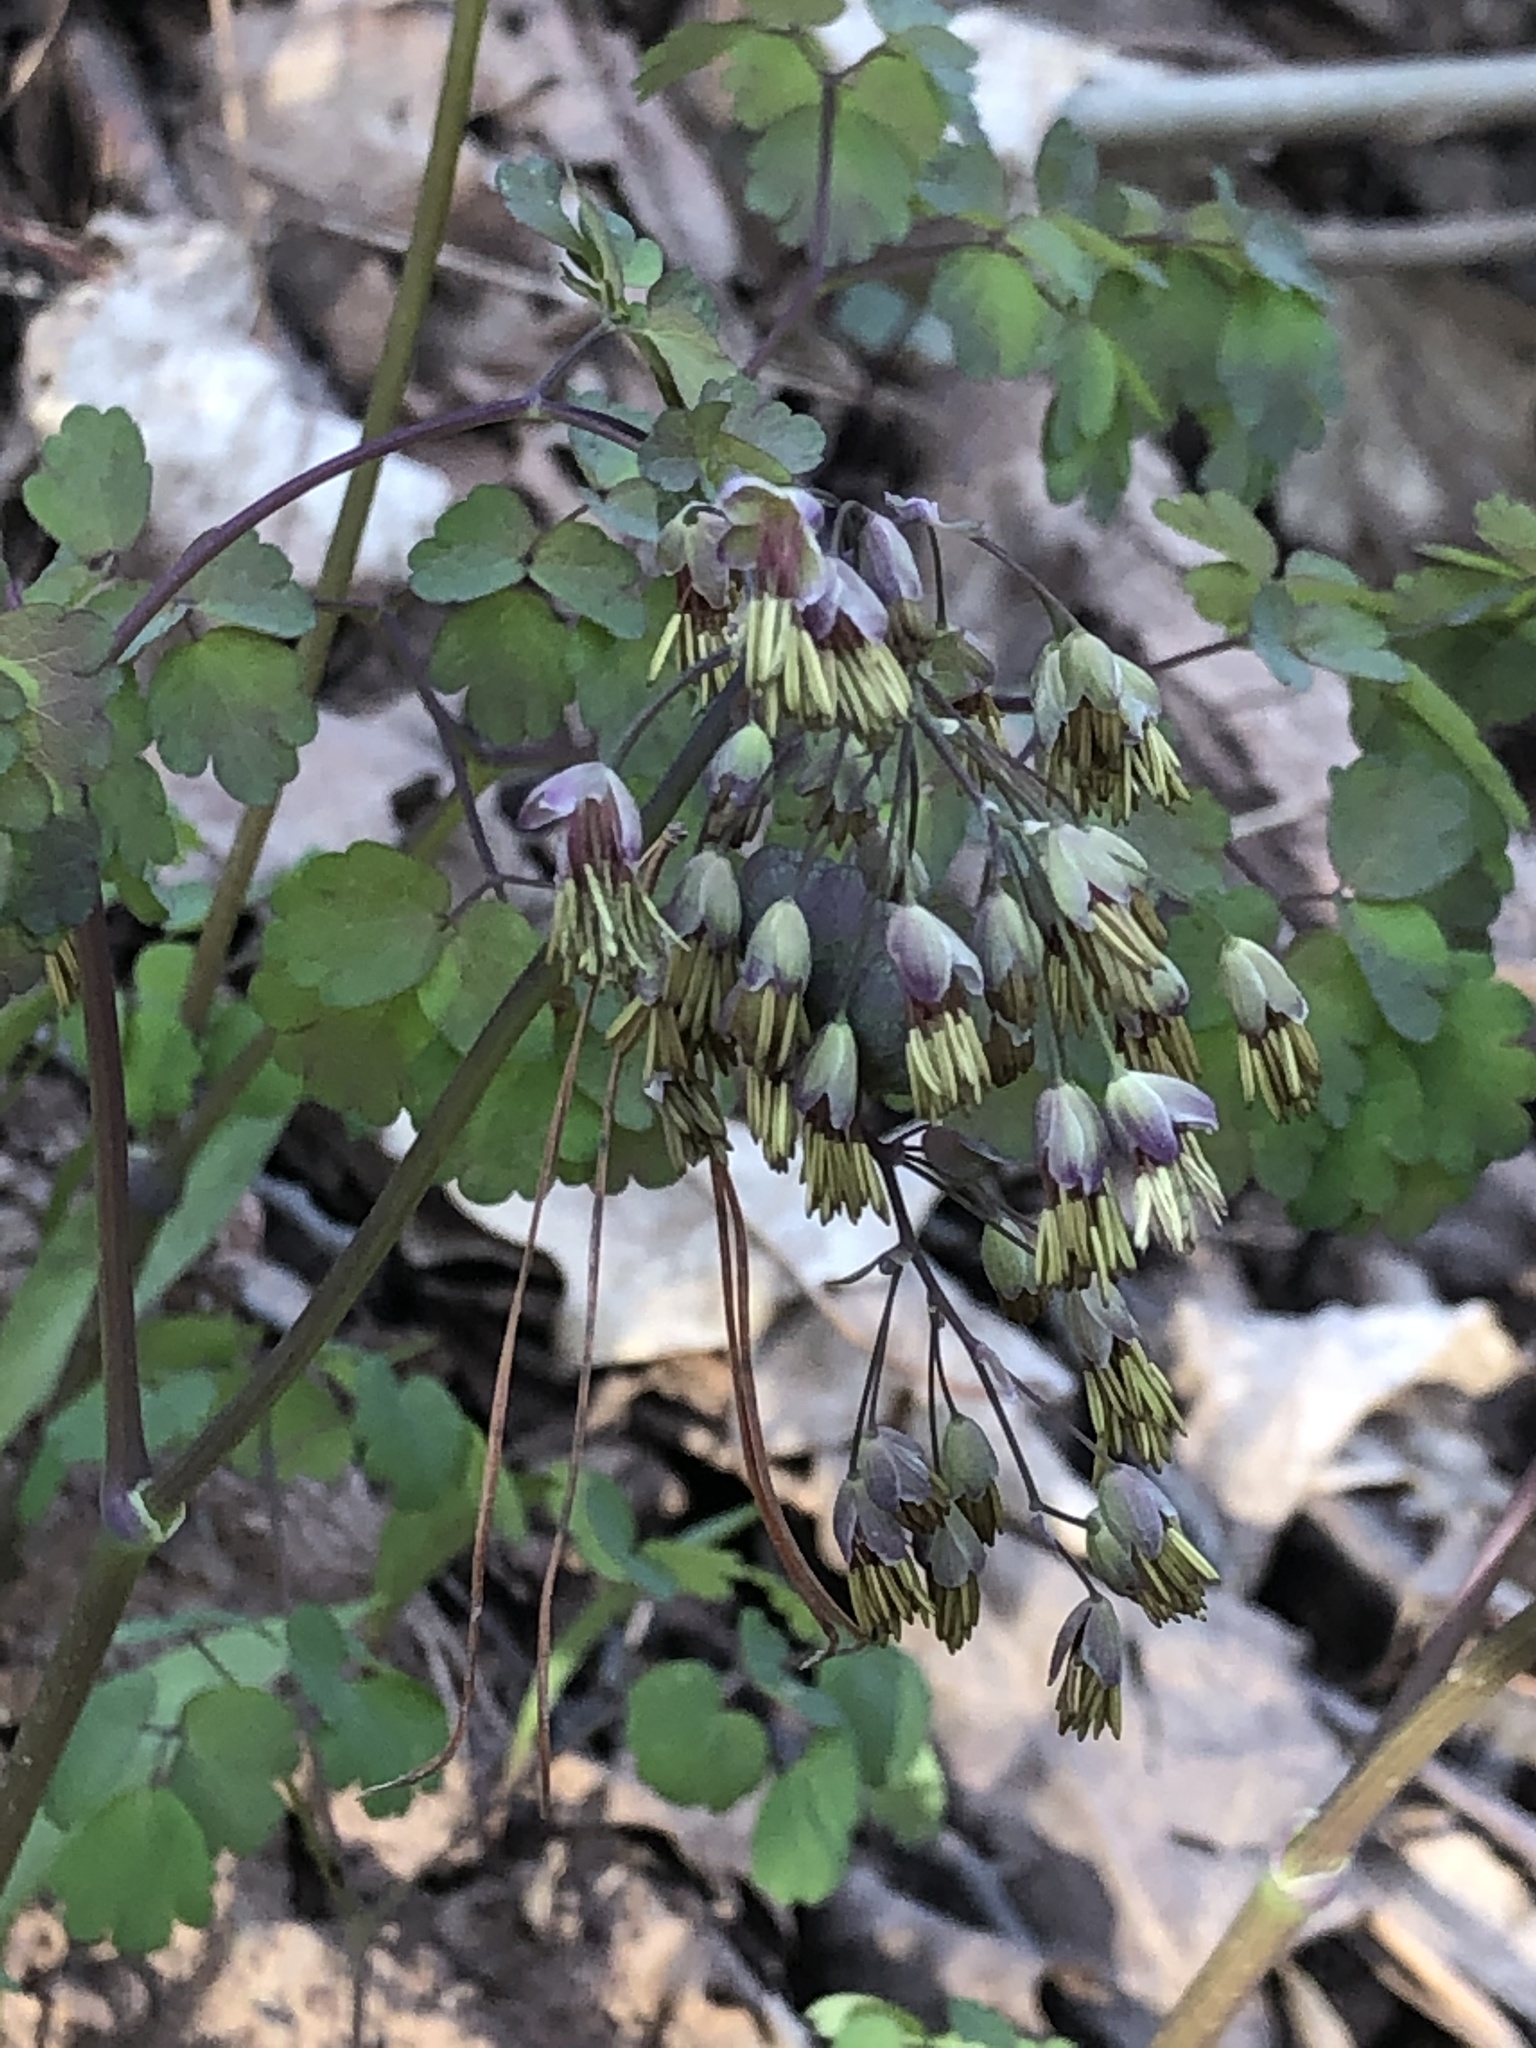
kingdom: Plantae
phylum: Tracheophyta
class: Magnoliopsida
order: Ranunculales
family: Ranunculaceae
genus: Thalictrum
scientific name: Thalictrum dioicum
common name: Early meadow-rue
